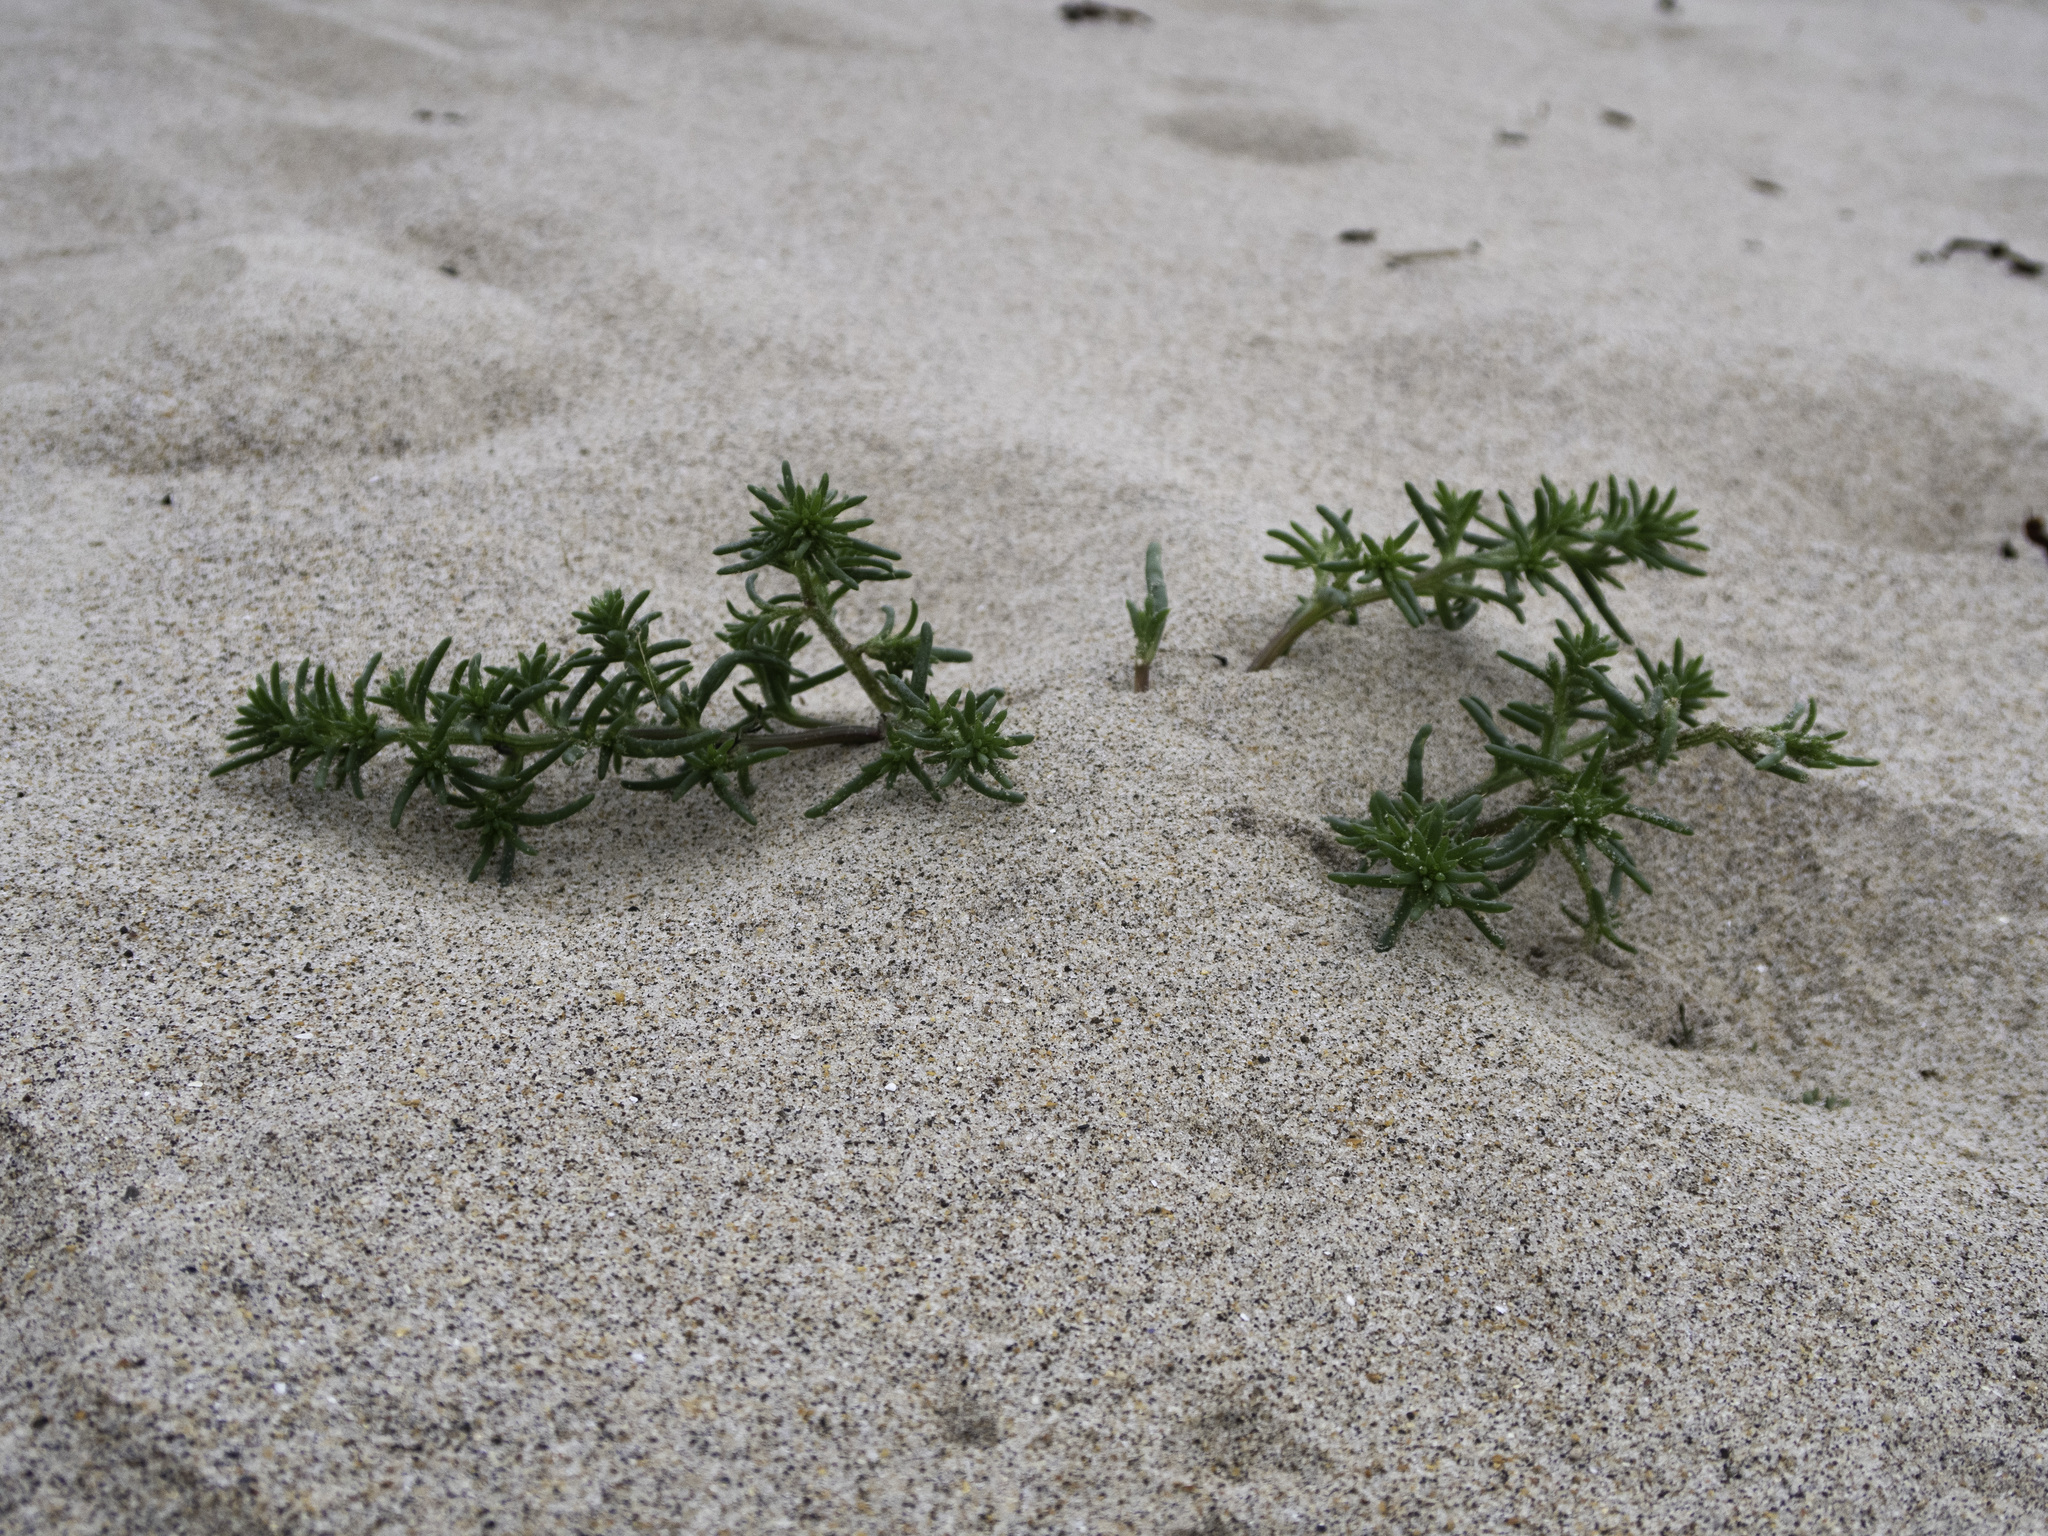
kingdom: Plantae
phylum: Tracheophyta
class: Magnoliopsida
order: Caryophyllales
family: Amaranthaceae
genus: Salsola
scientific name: Salsola kali
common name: Saltwort
